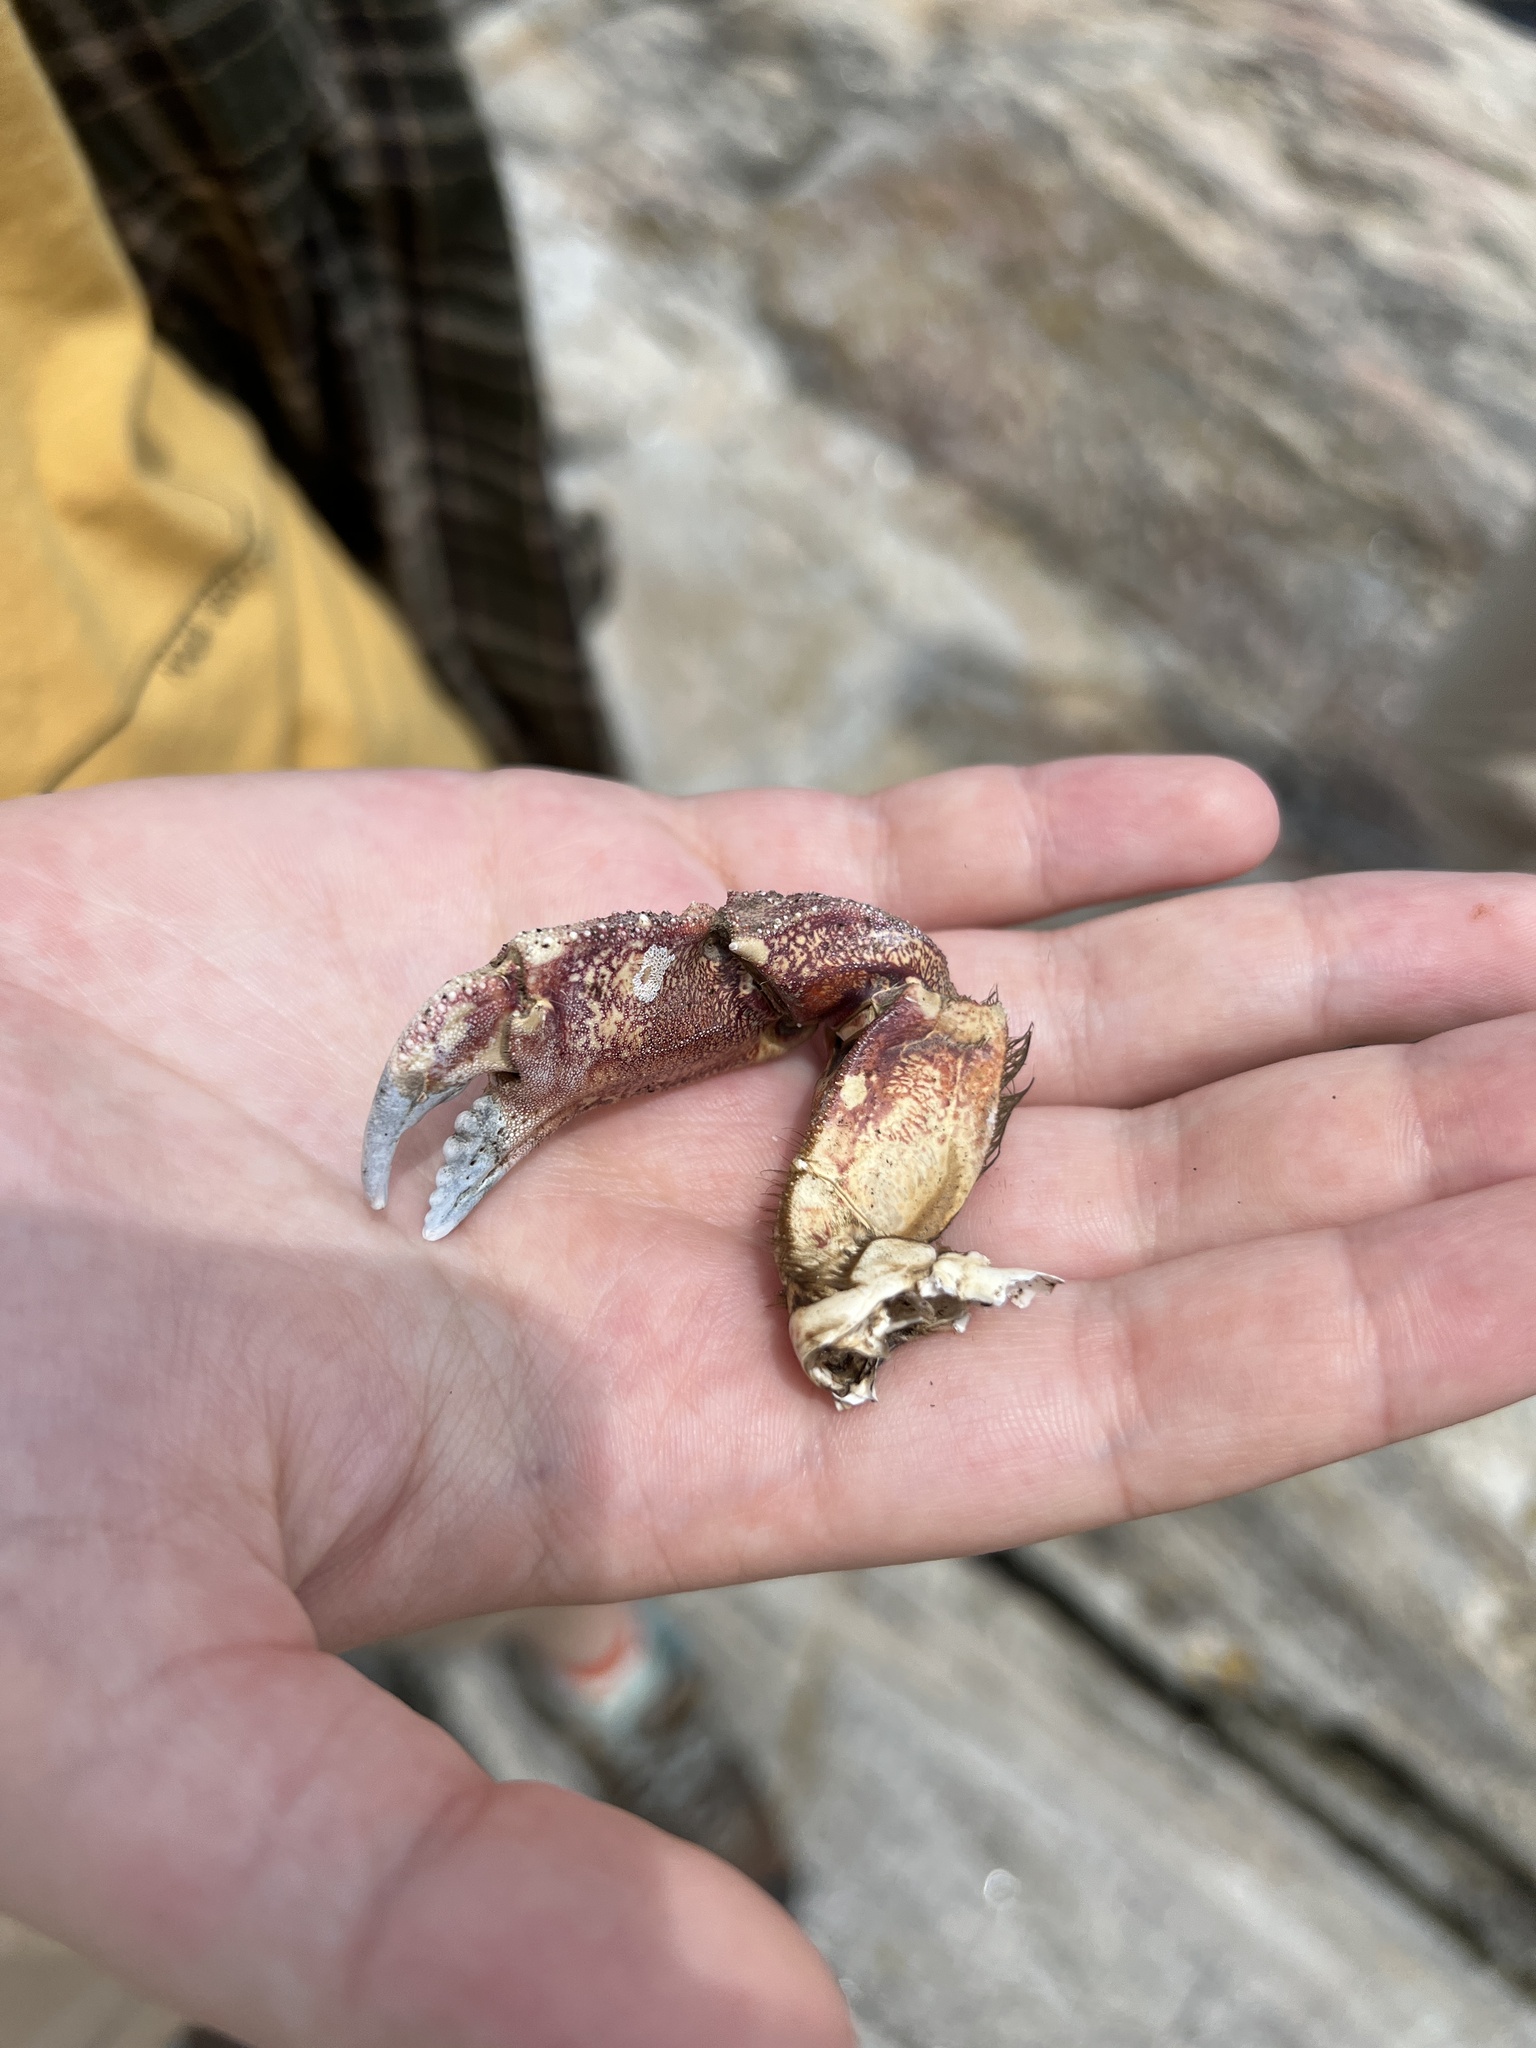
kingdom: Animalia
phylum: Arthropoda
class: Malacostraca
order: Decapoda
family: Cancridae
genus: Cancer
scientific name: Cancer borealis
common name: Jonah crab
